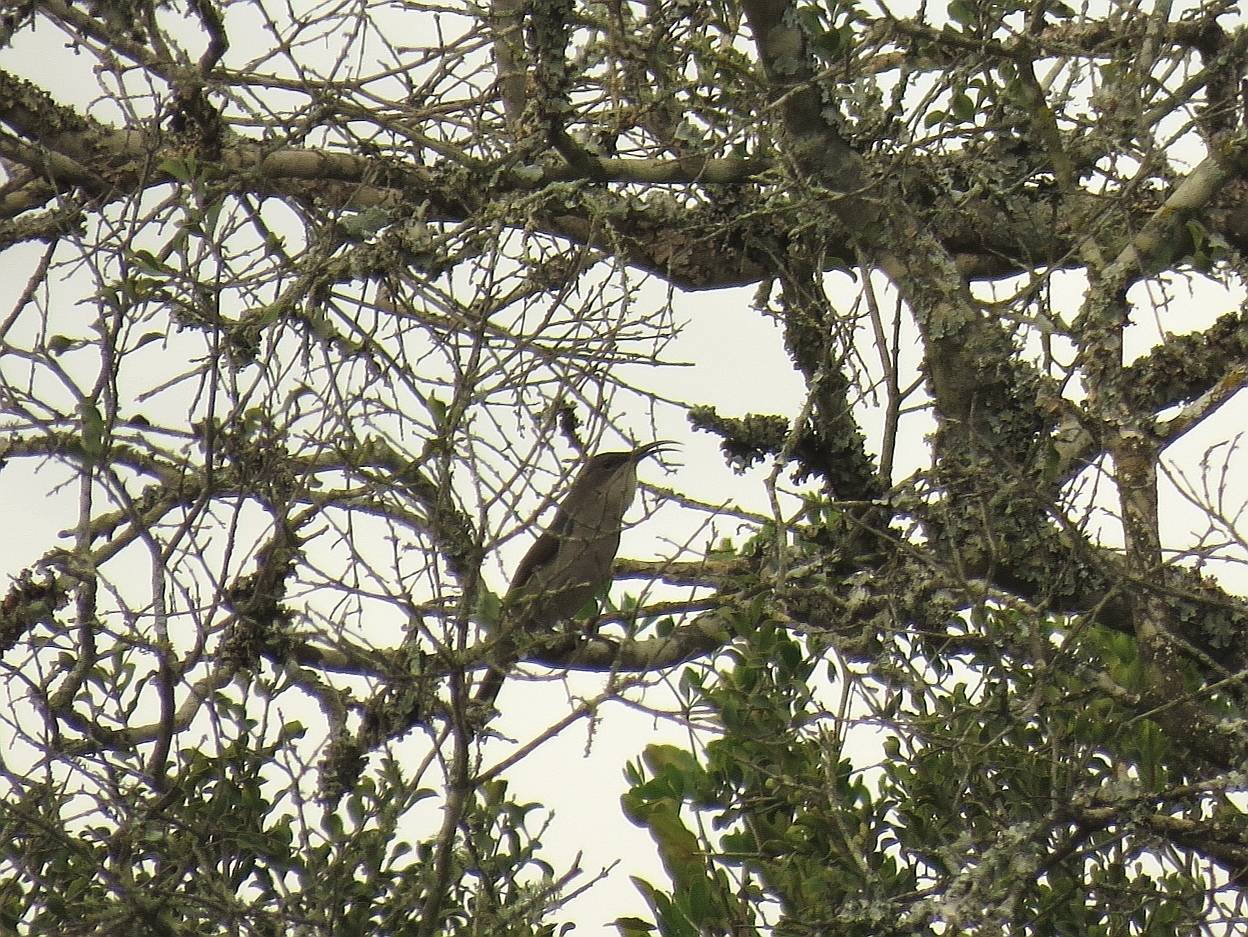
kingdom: Animalia
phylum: Chordata
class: Aves
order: Passeriformes
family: Nectariniidae
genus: Cyanomitra
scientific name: Cyanomitra veroxii
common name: Grey sunbird
